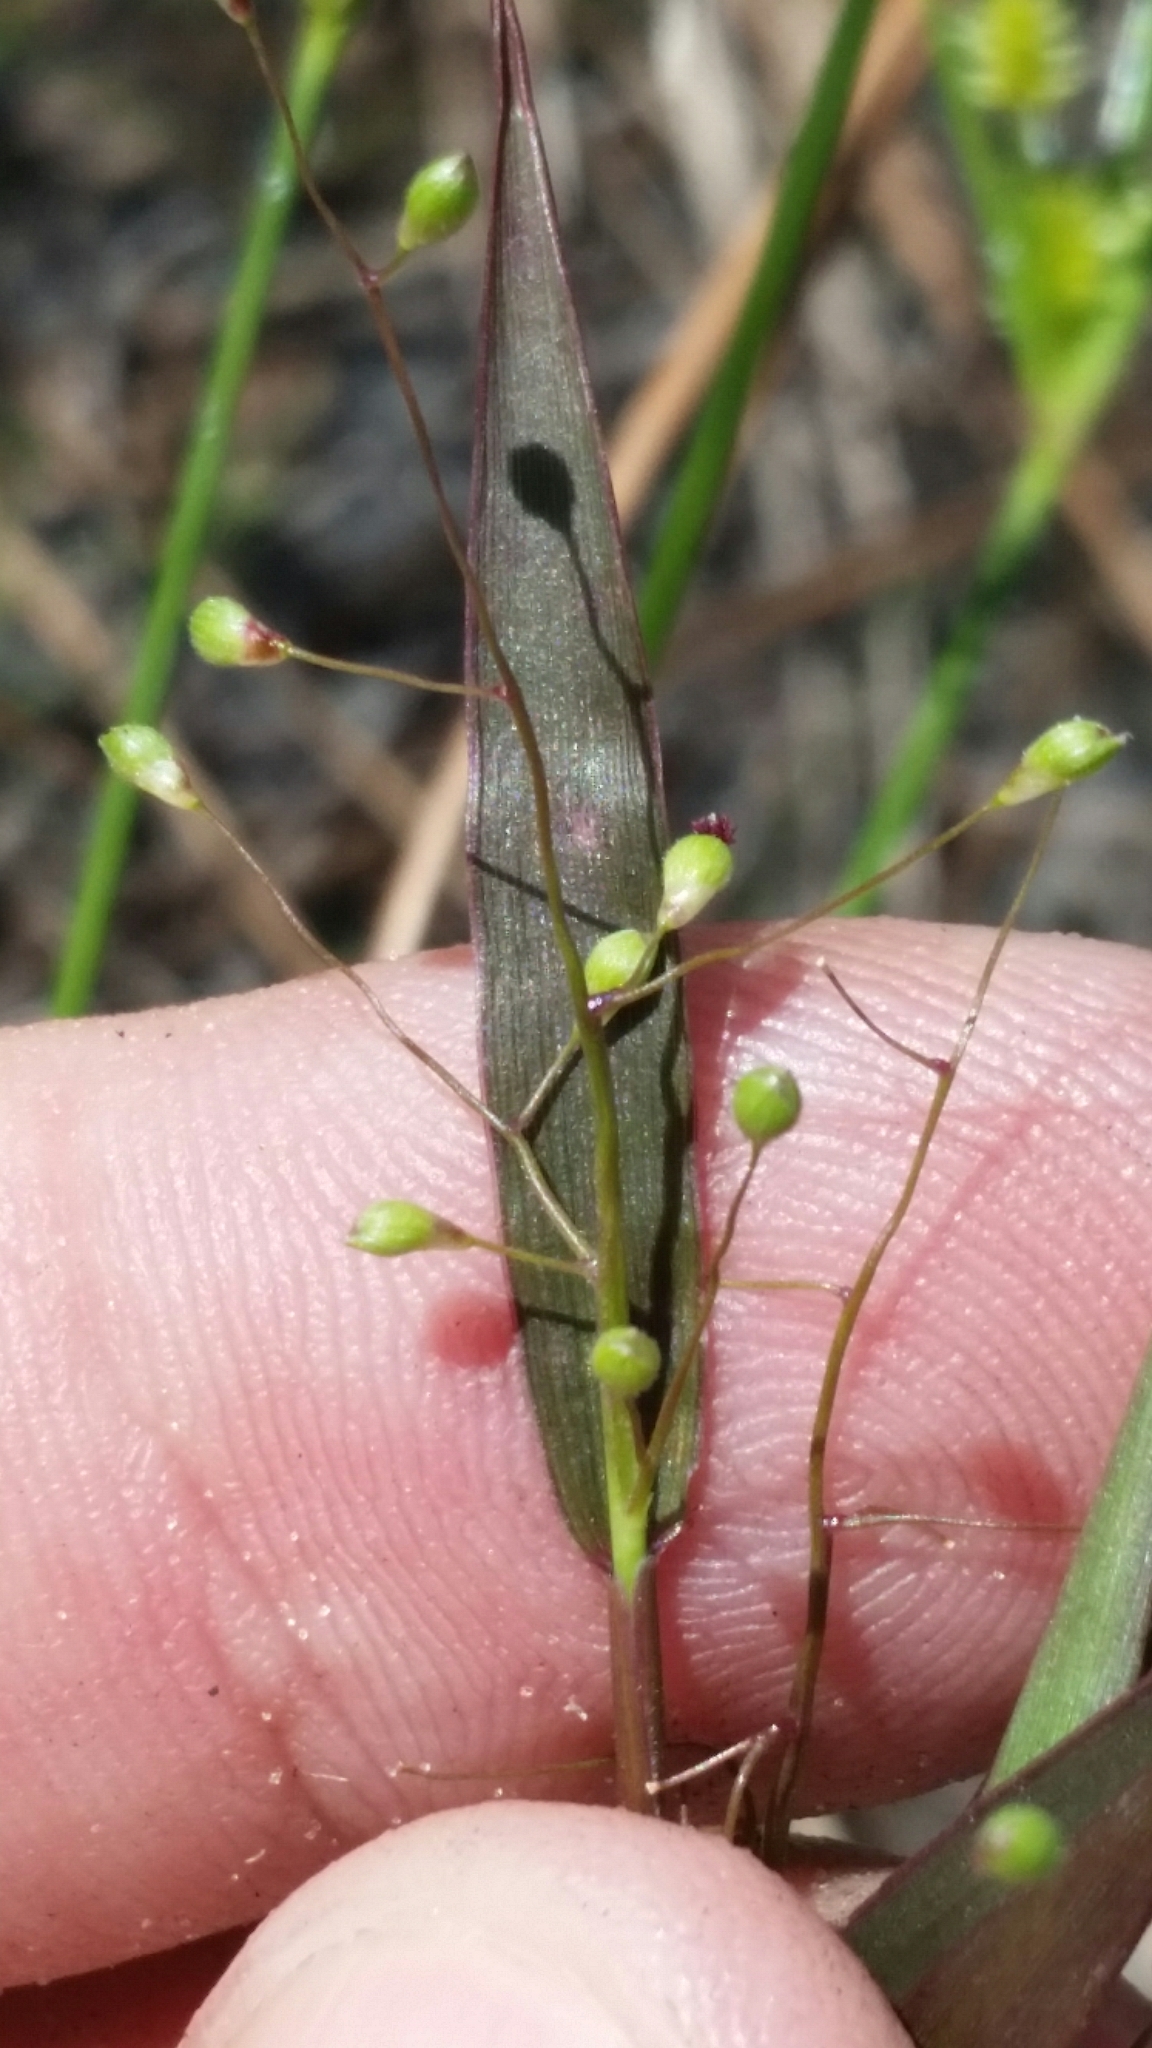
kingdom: Plantae
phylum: Tracheophyta
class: Liliopsida
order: Poales
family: Poaceae
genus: Dichanthelium
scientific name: Dichanthelium portoricense
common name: American panicgrass
